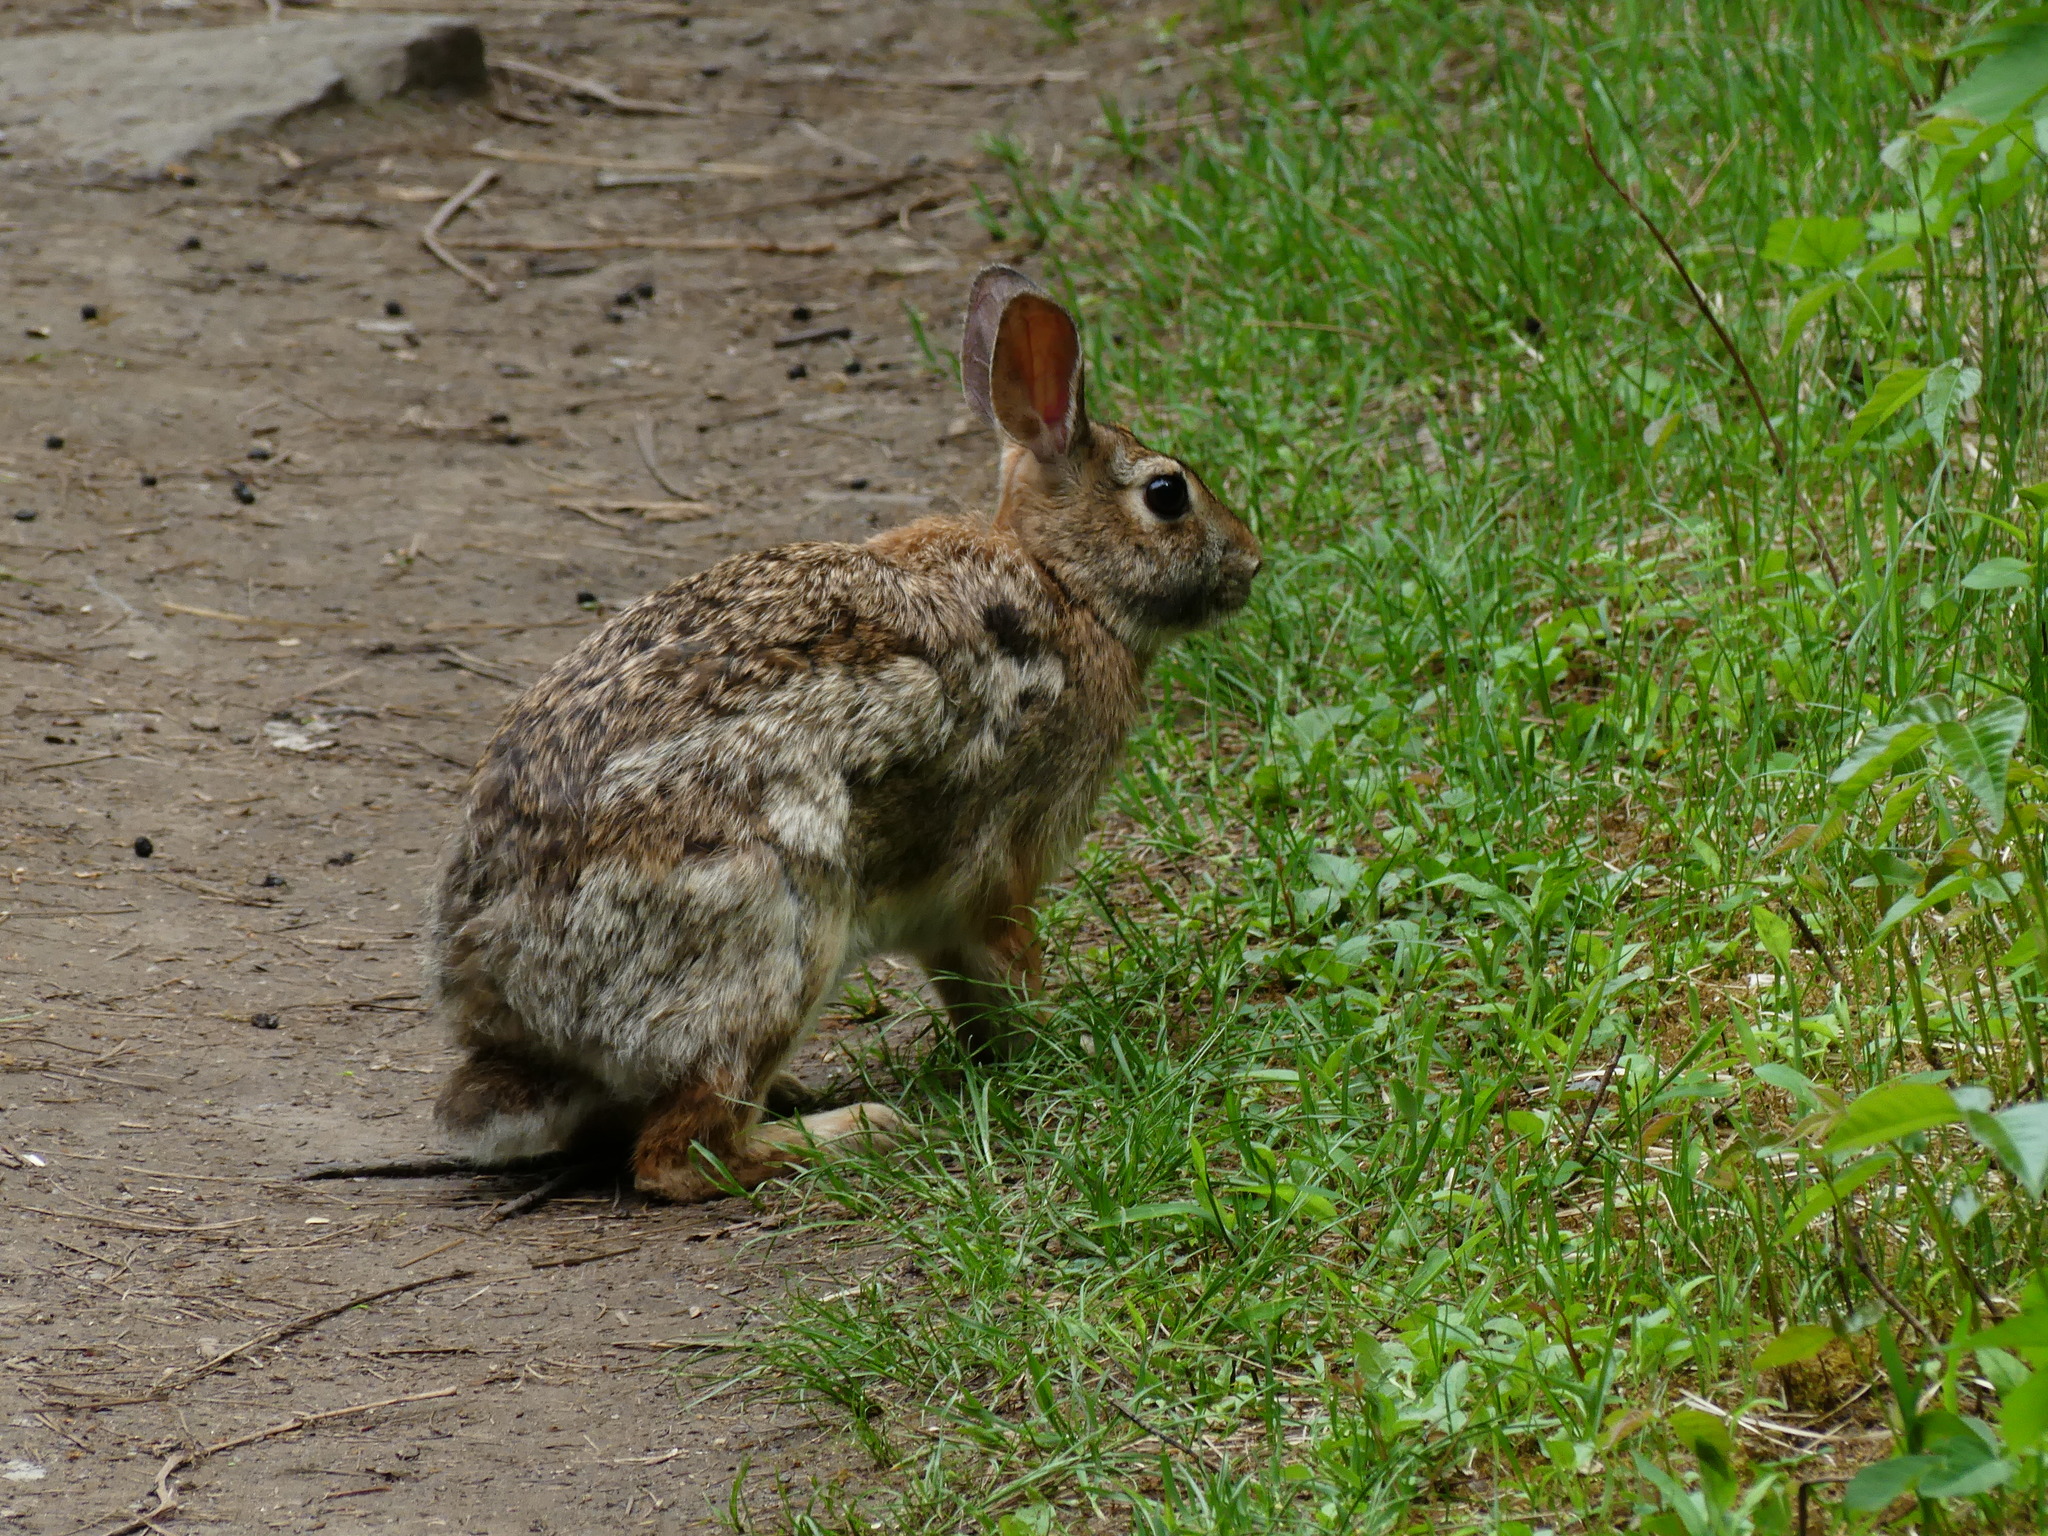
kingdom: Animalia
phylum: Chordata
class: Mammalia
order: Lagomorpha
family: Leporidae
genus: Sylvilagus
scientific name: Sylvilagus floridanus
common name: Eastern cottontail
